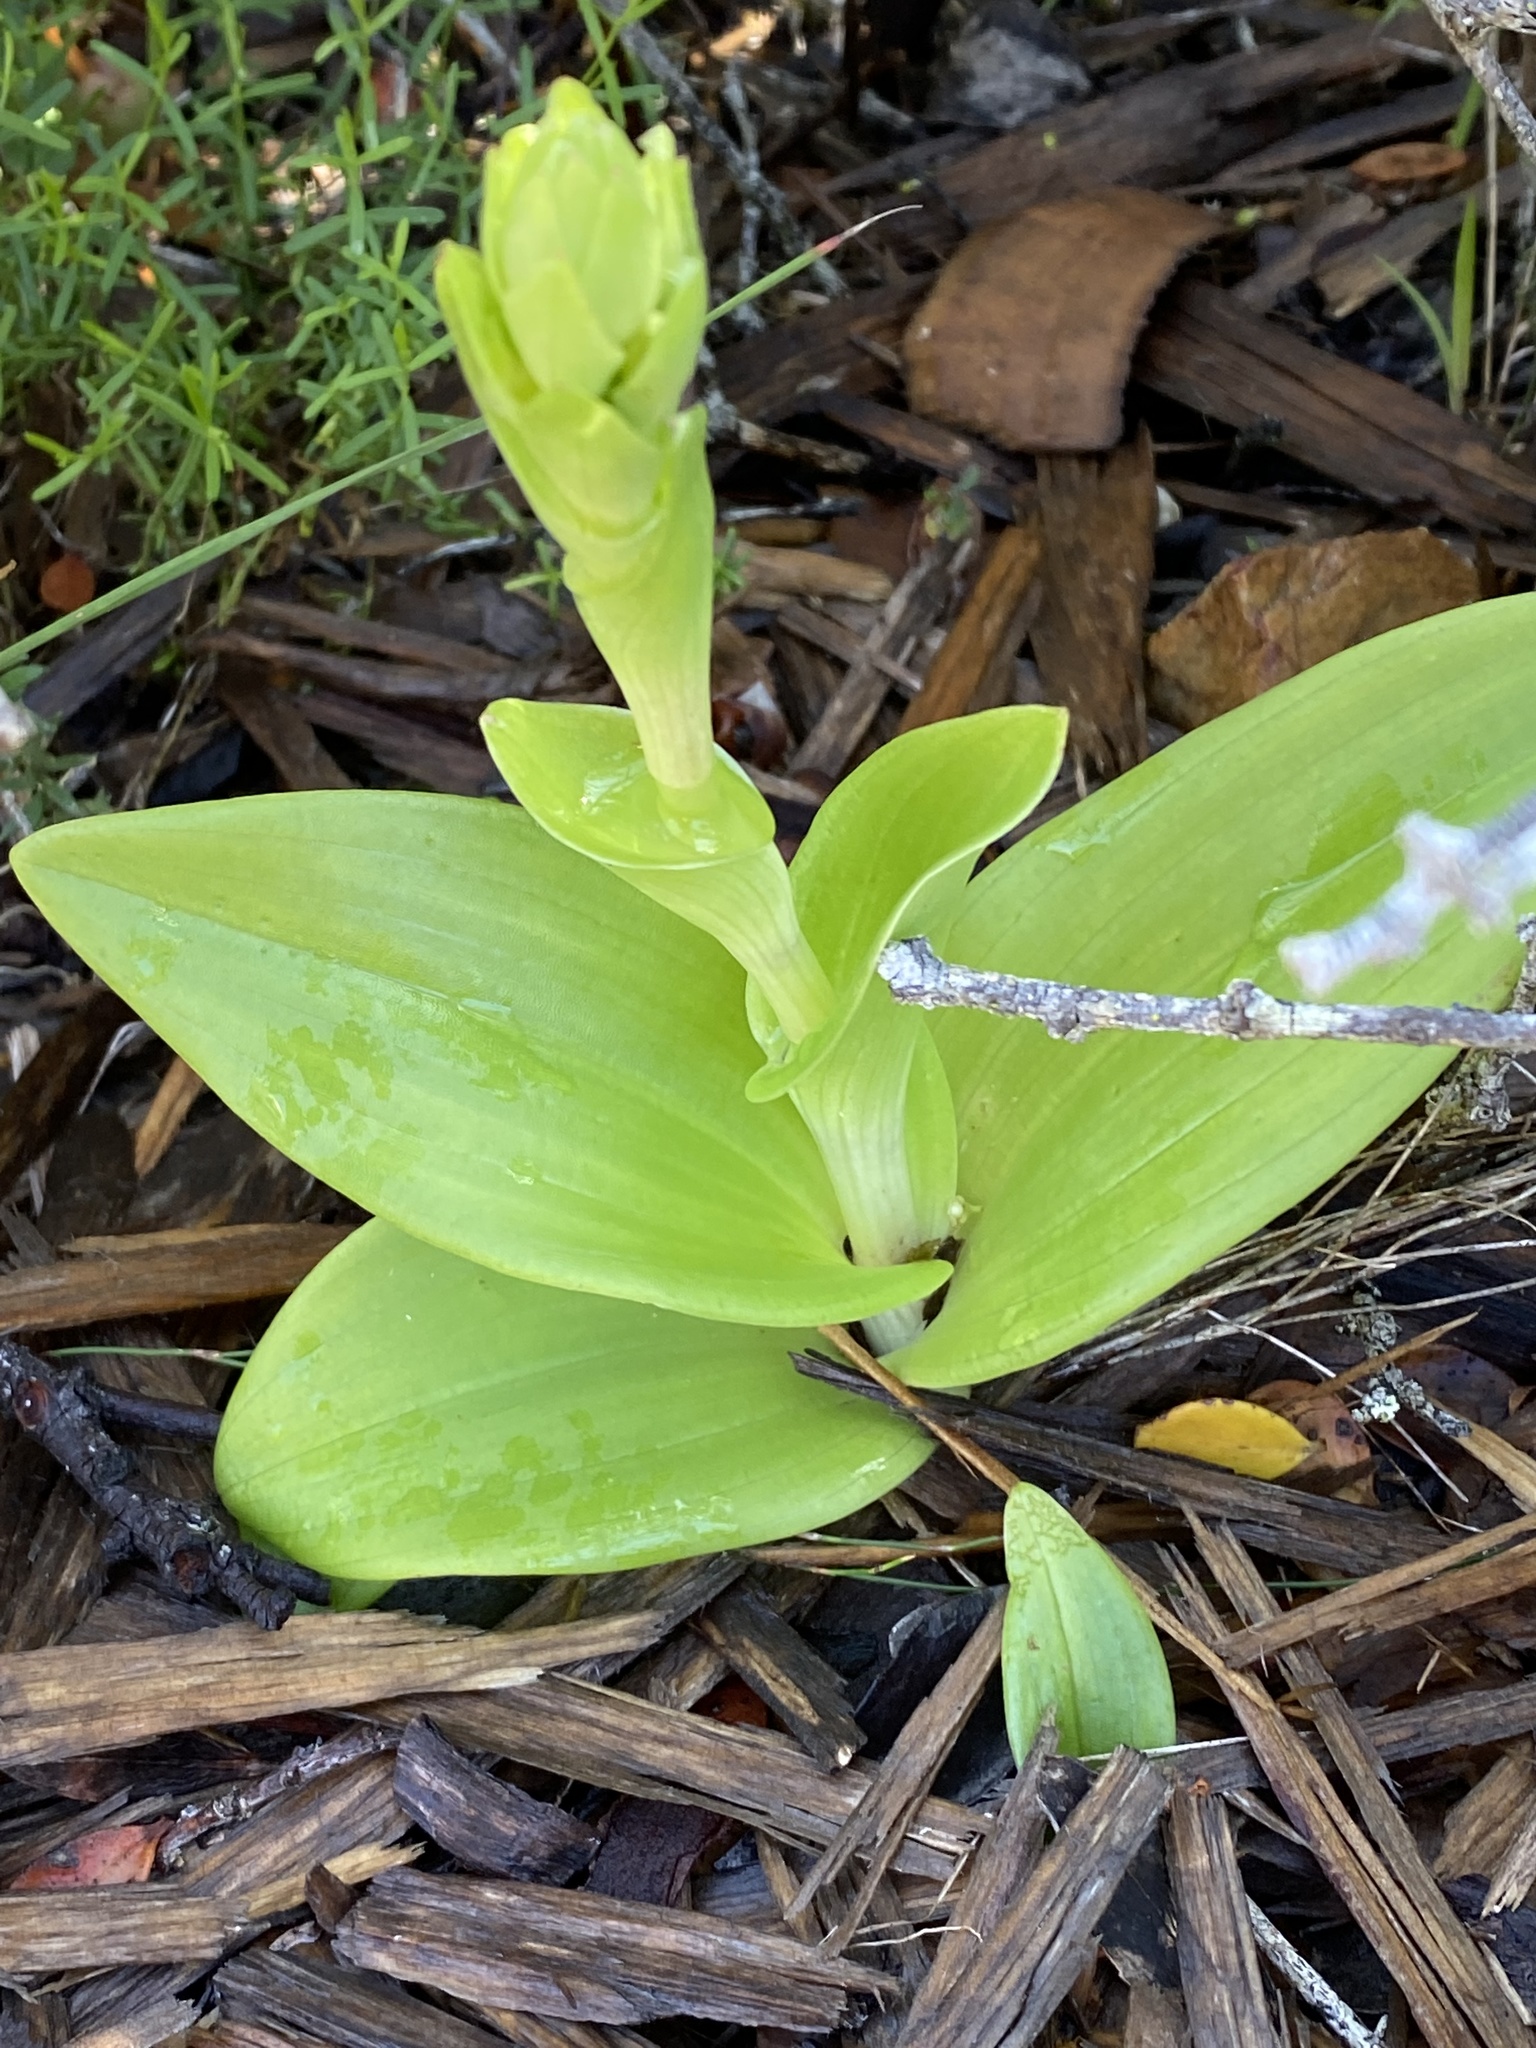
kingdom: Plantae
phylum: Tracheophyta
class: Liliopsida
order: Asparagales
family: Orchidaceae
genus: Satyrium
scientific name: Satyrium odorum
